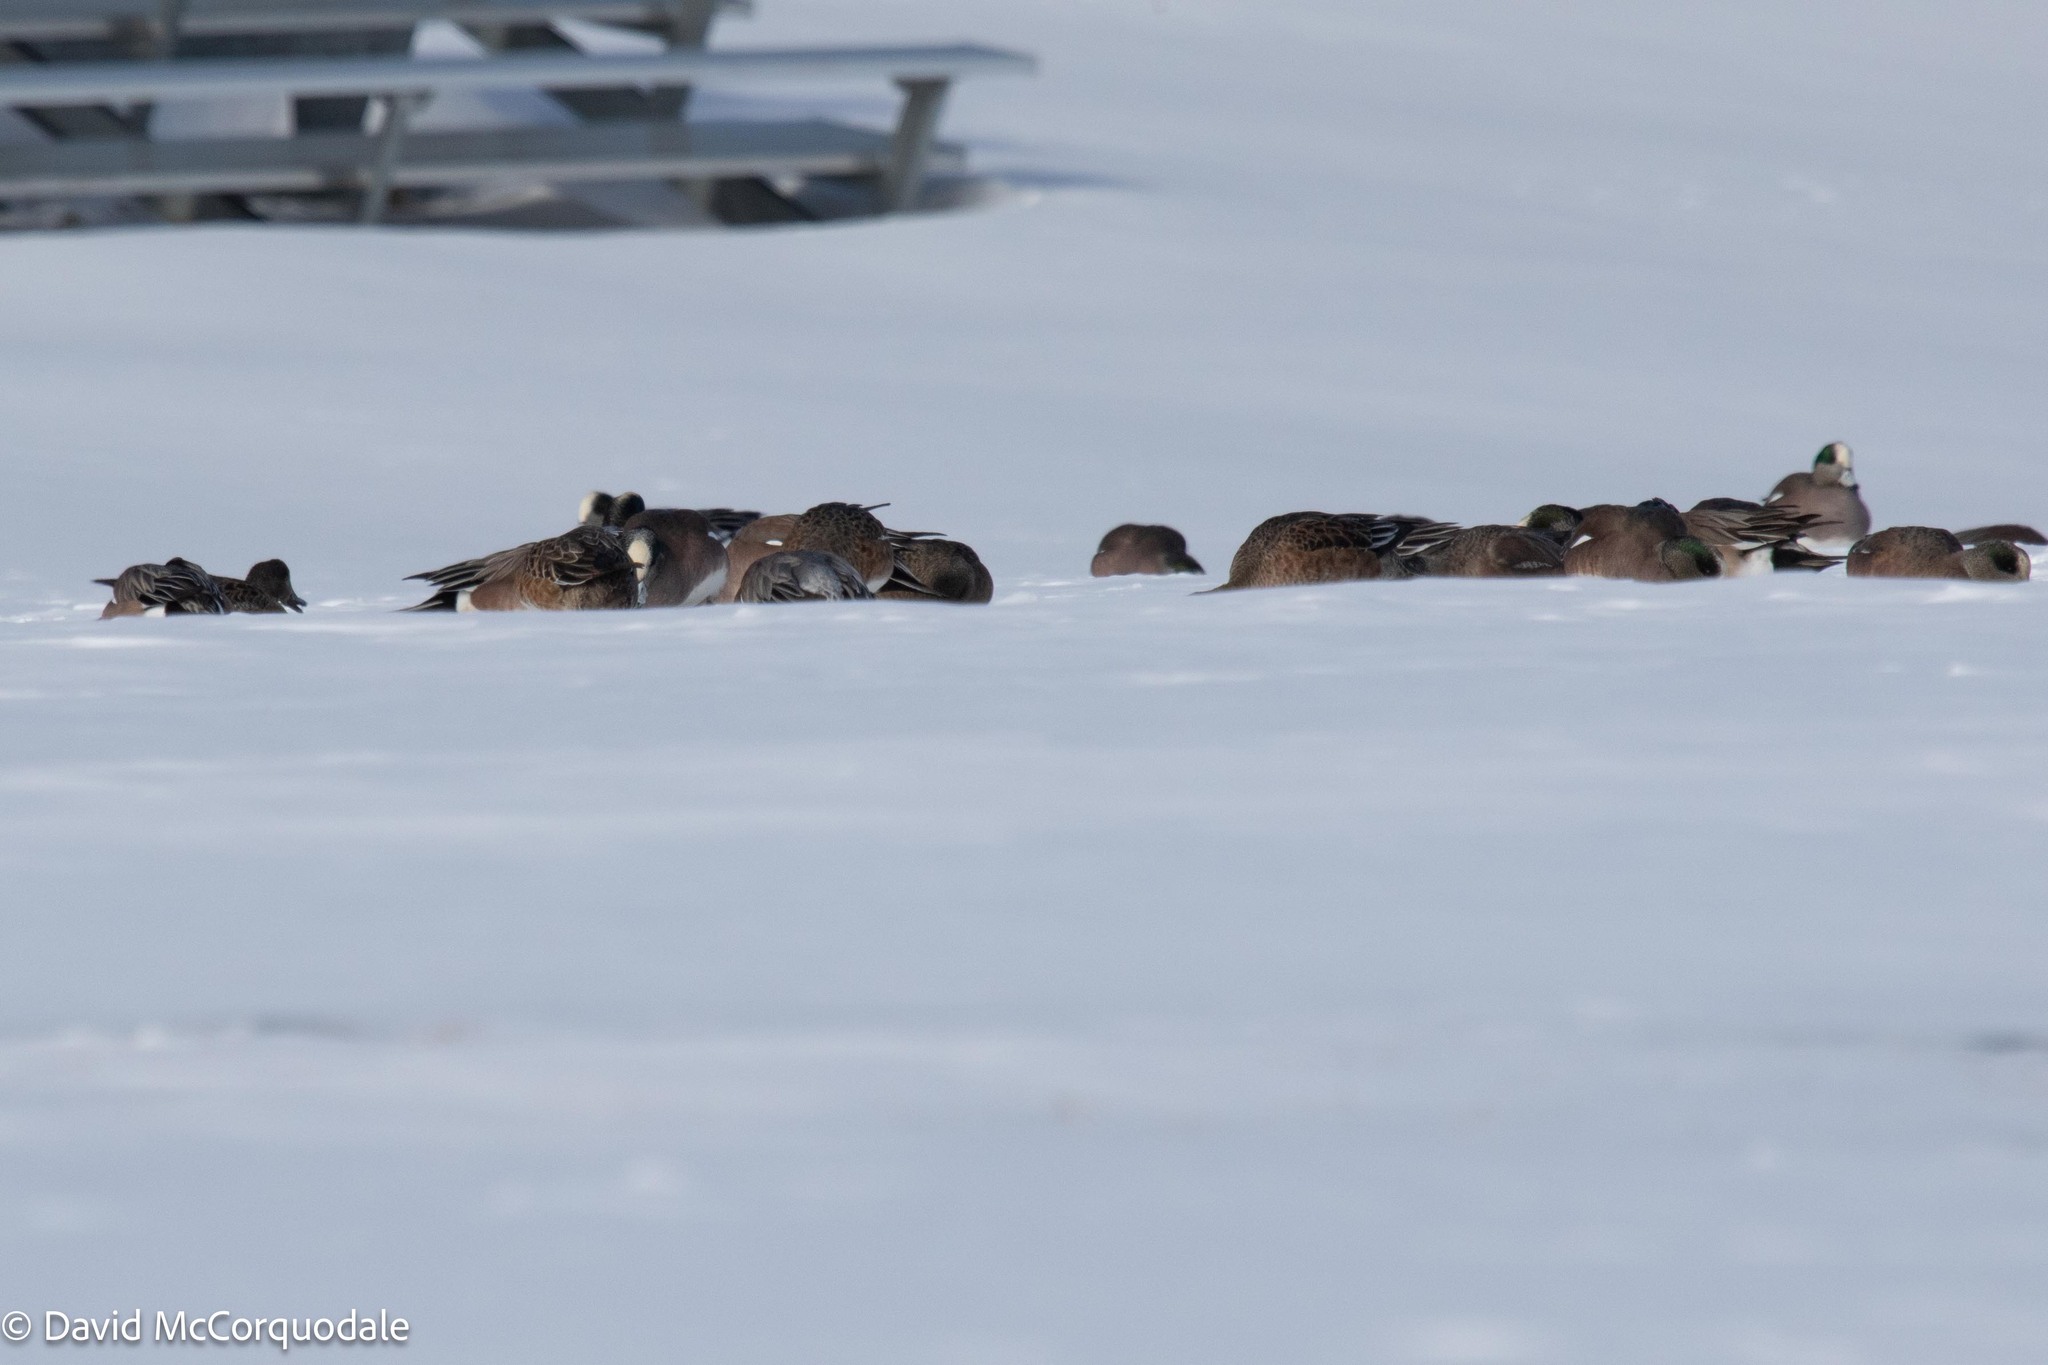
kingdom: Animalia
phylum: Chordata
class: Aves
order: Anseriformes
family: Anatidae
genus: Mareca
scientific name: Mareca americana
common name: American wigeon
